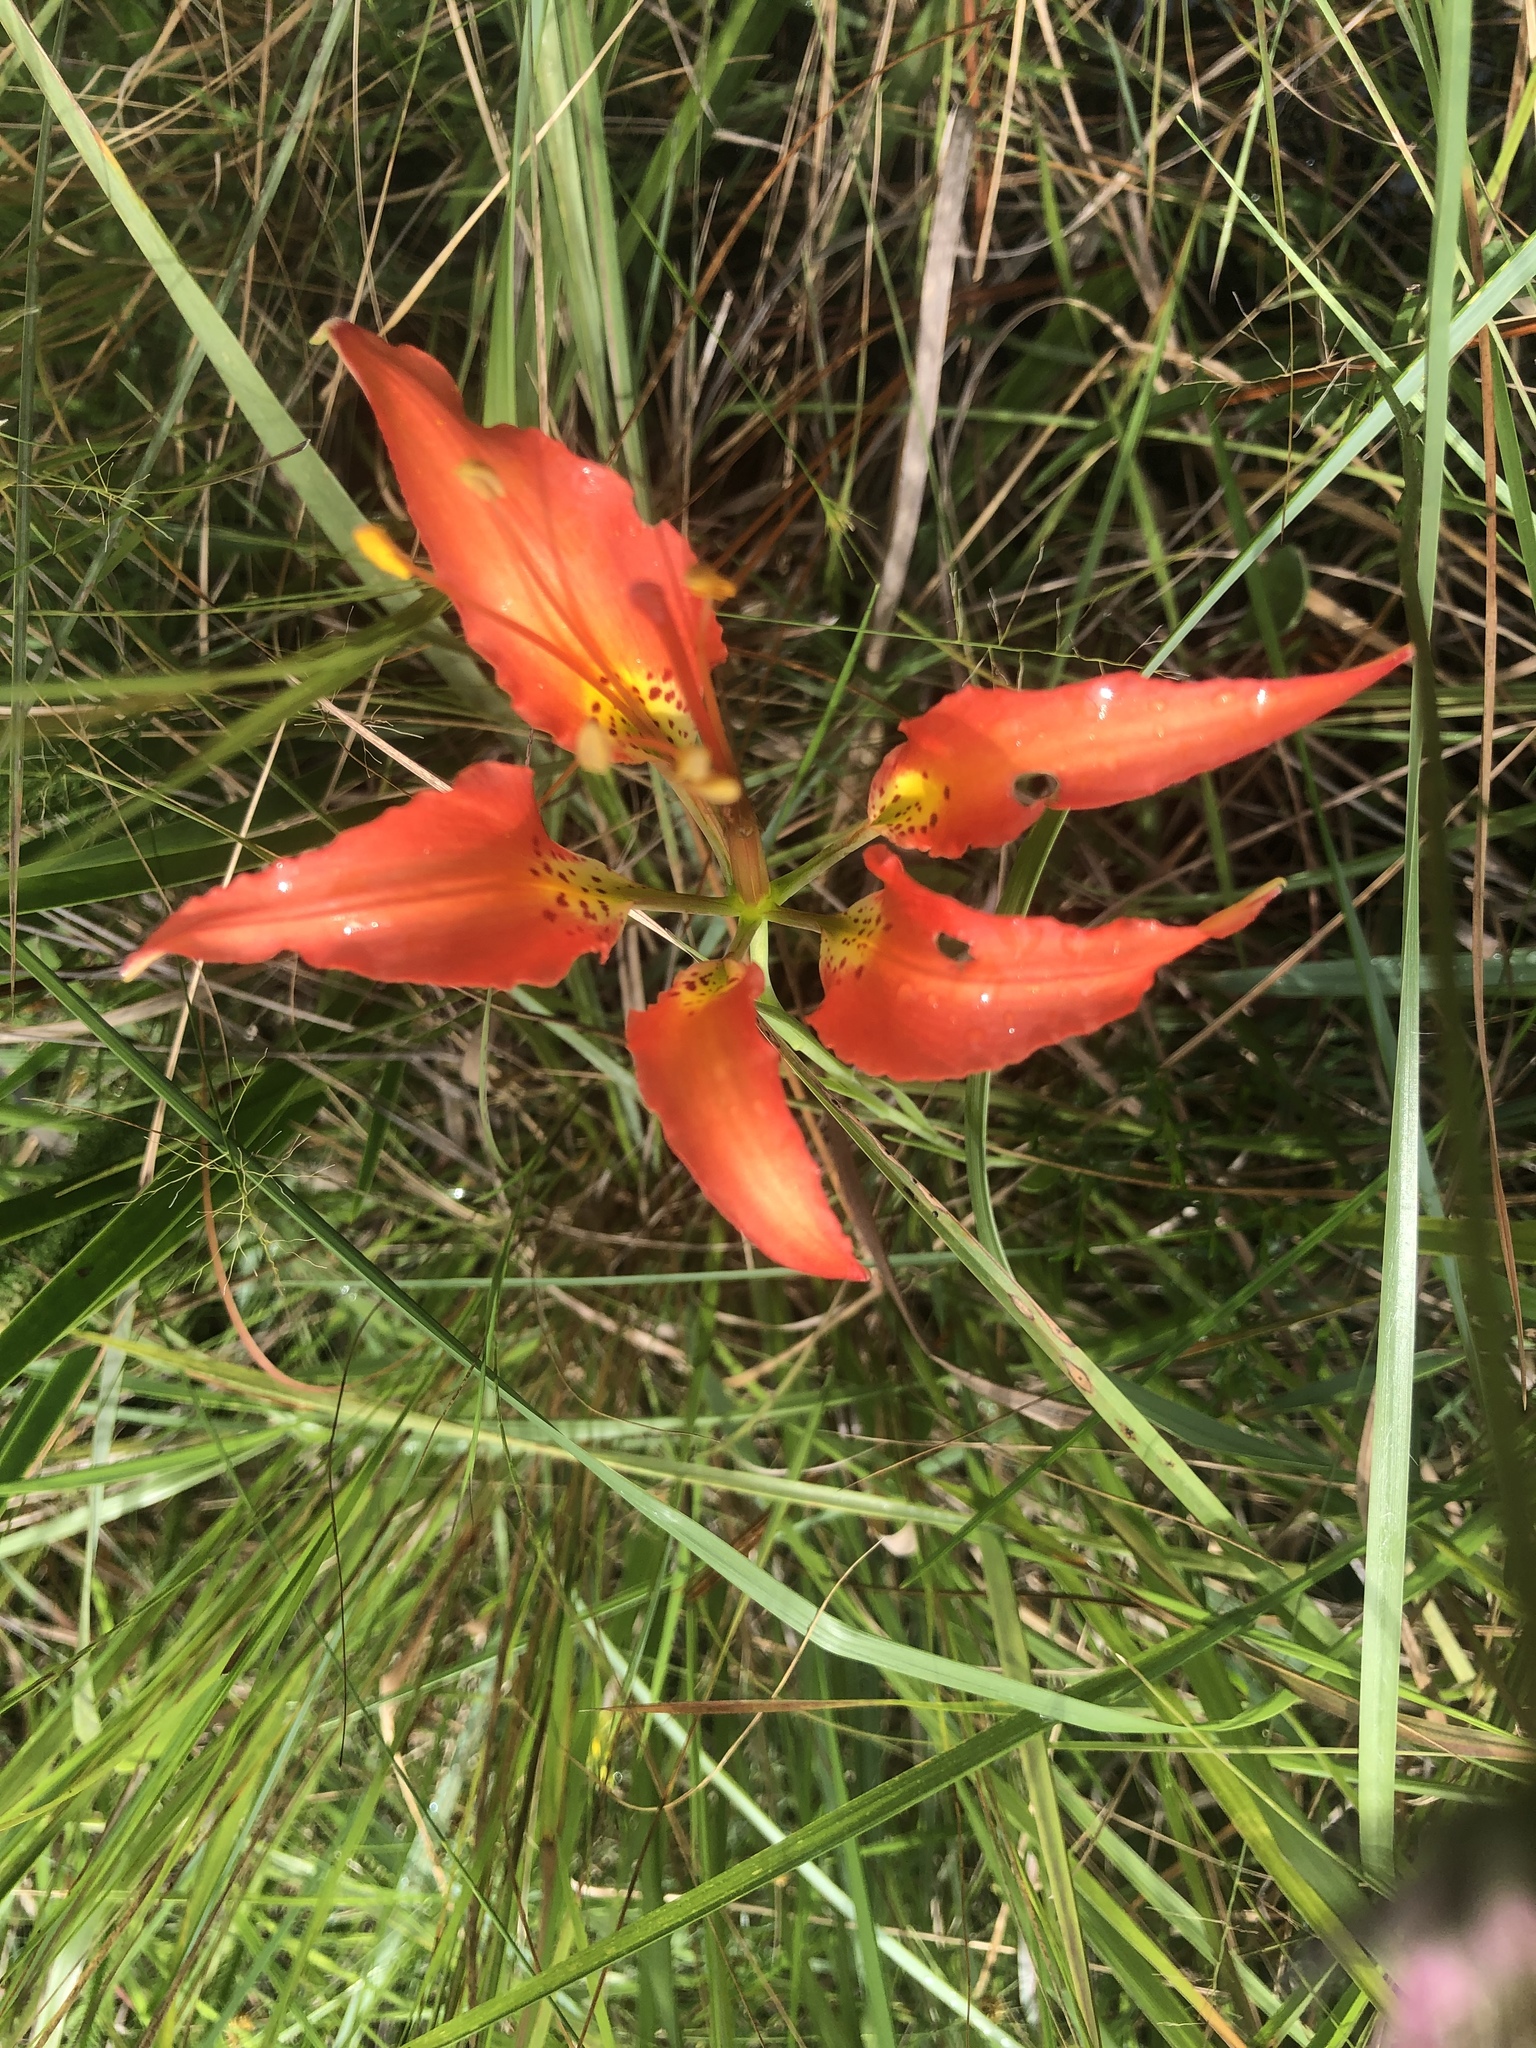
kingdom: Plantae
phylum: Tracheophyta
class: Liliopsida
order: Liliales
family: Liliaceae
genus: Lilium
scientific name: Lilium catesbaei
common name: Catesby's lily
